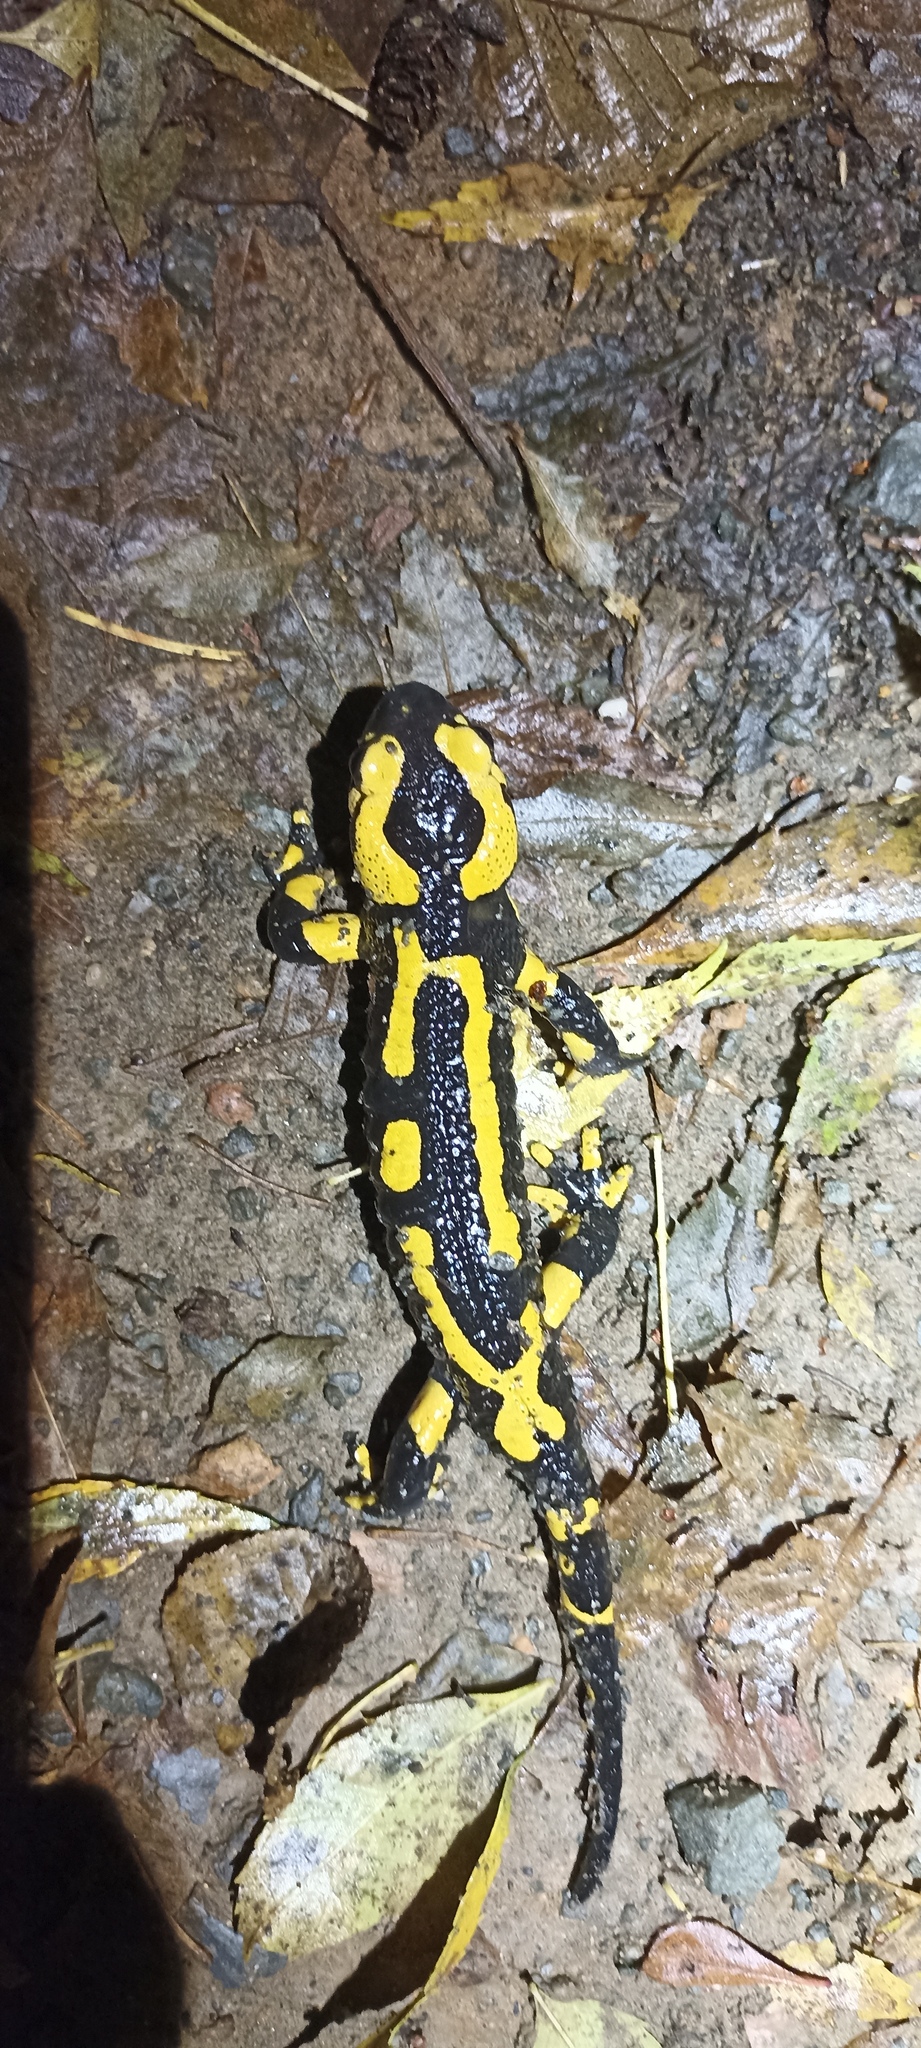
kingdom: Animalia
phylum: Chordata
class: Amphibia
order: Caudata
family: Salamandridae
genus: Salamandra
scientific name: Salamandra salamandra
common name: Fire salamander
